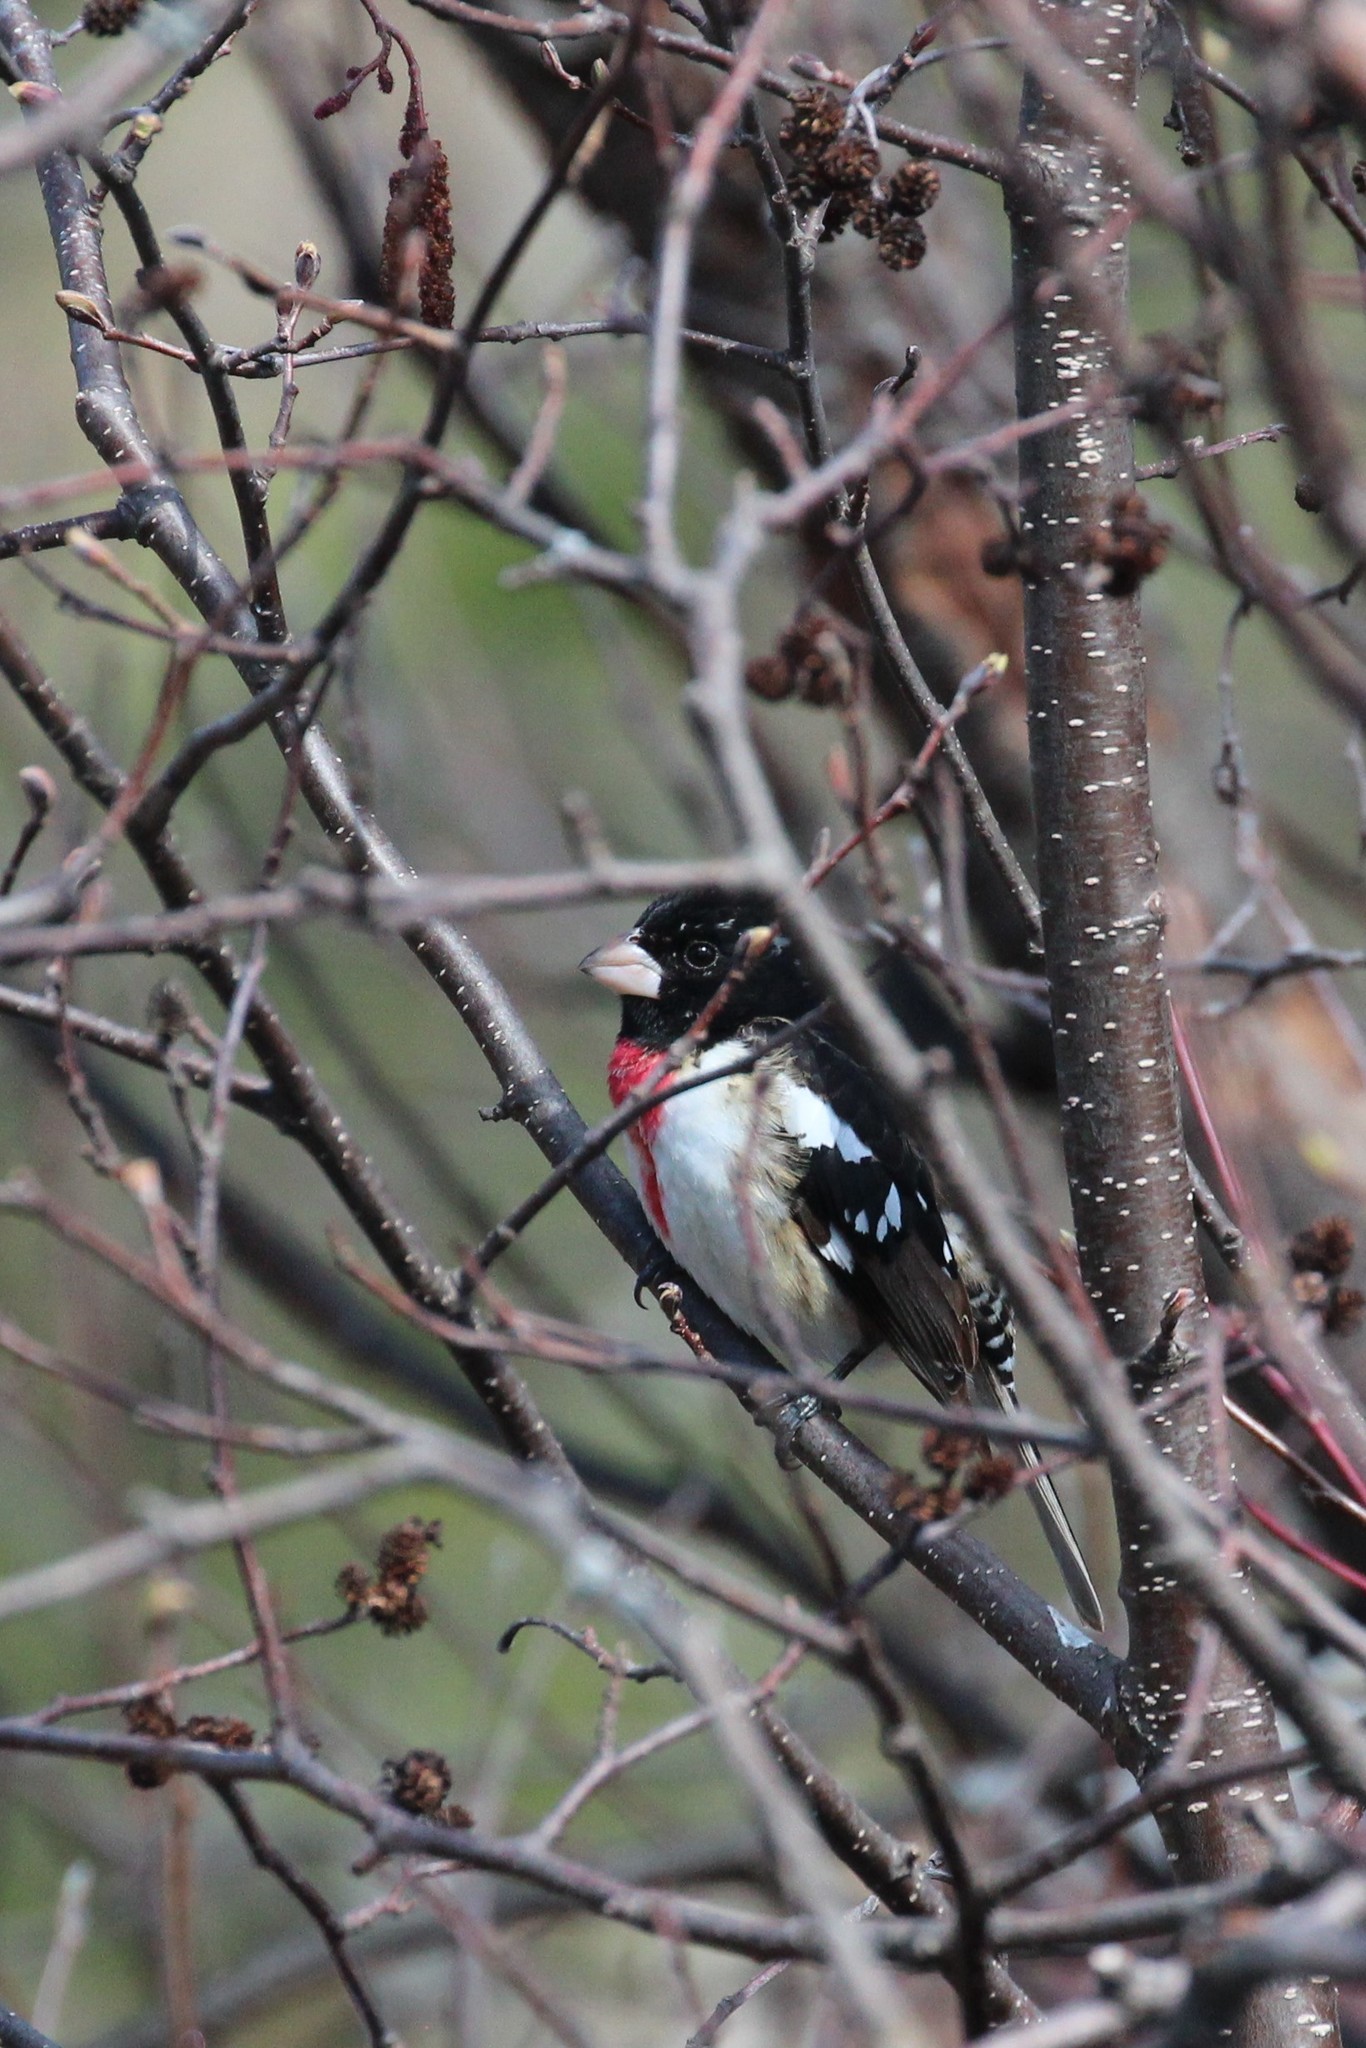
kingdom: Animalia
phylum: Chordata
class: Aves
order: Passeriformes
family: Cardinalidae
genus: Pheucticus
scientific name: Pheucticus ludovicianus
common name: Rose-breasted grosbeak
